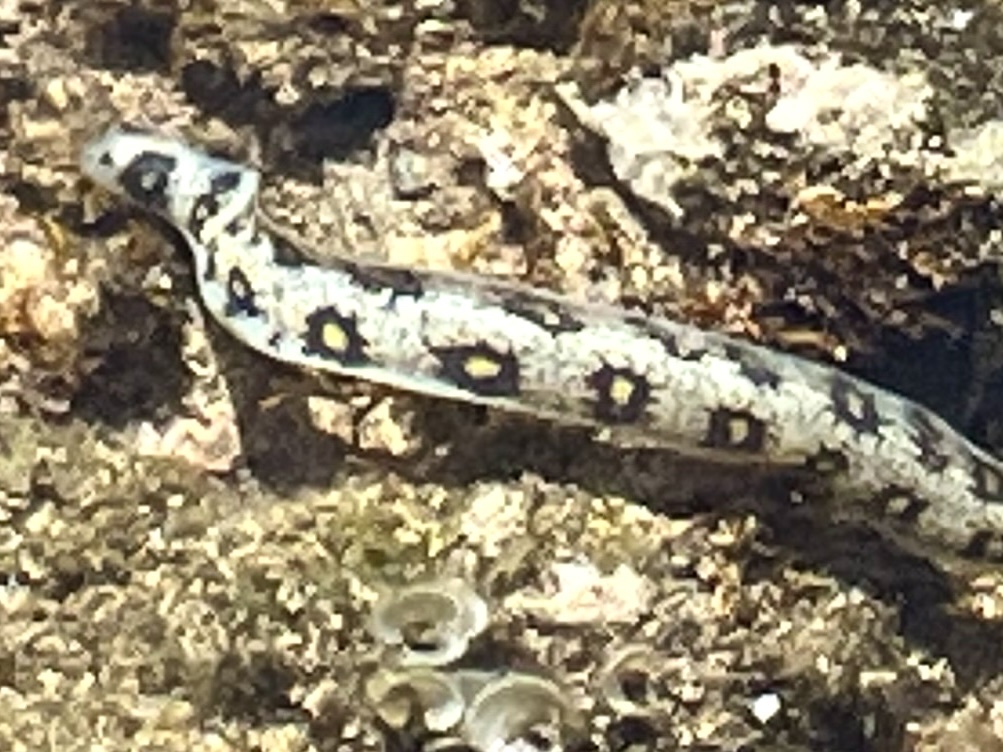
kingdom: Animalia
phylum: Chordata
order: Anguilliformes
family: Muraenidae
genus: Echidna
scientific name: Echidna nebulosa
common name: Snowflake moray
